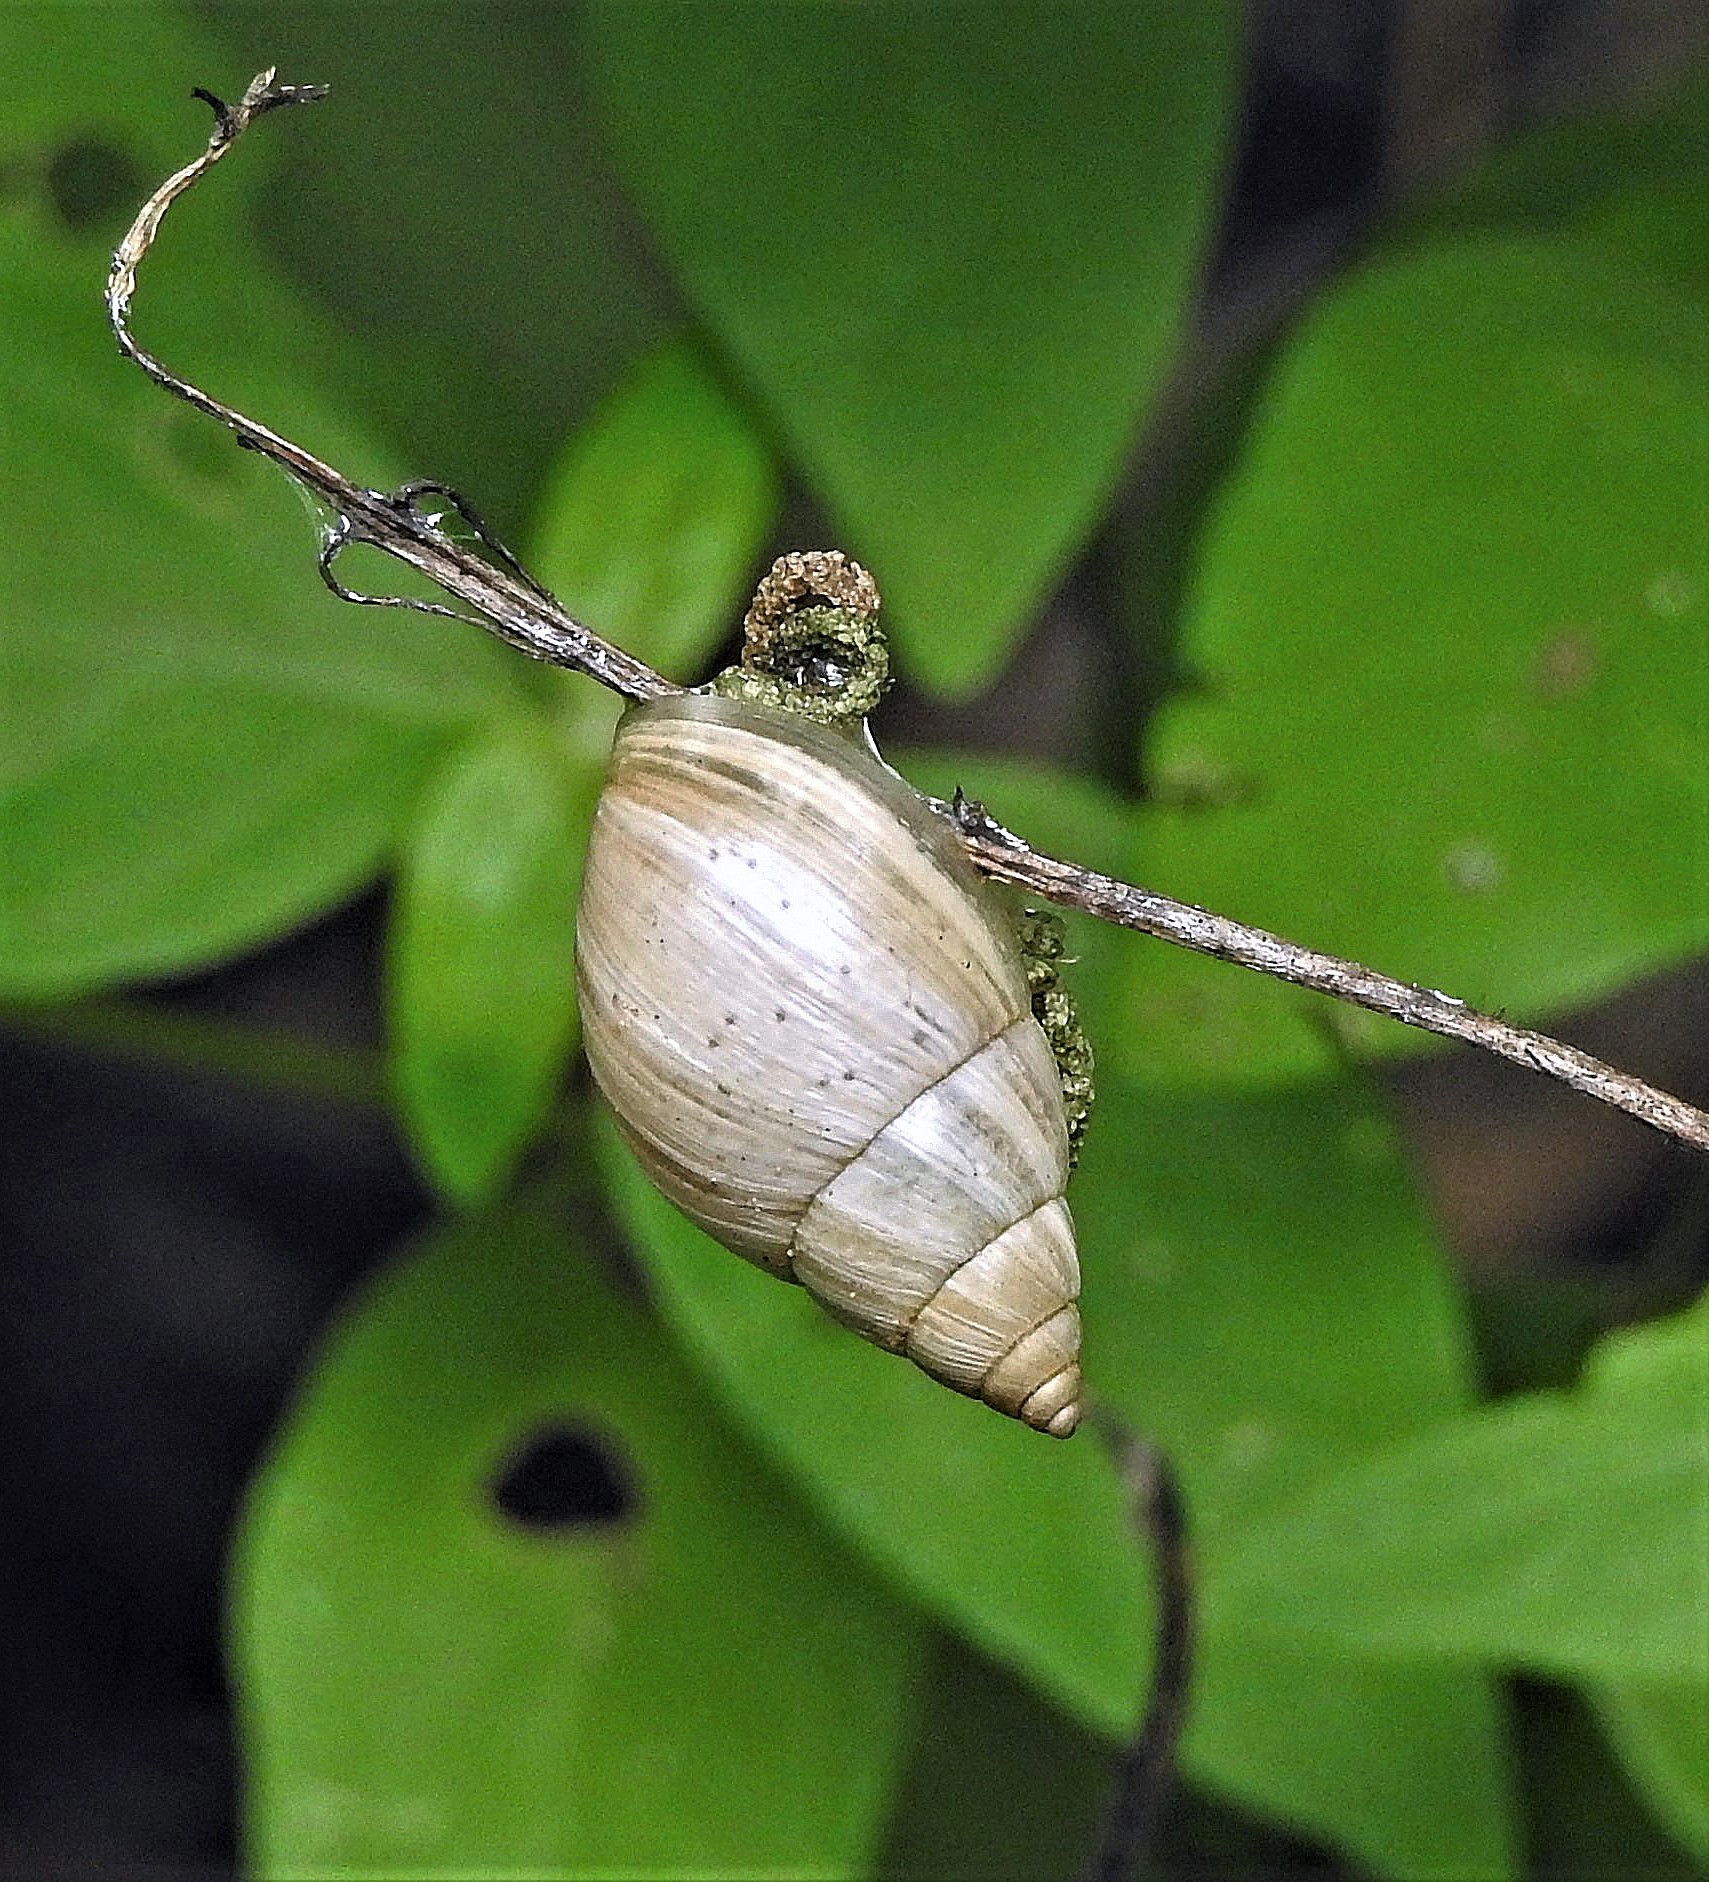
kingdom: Animalia
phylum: Mollusca
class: Gastropoda
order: Stylommatophora
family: Bulimulidae
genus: Bulimulus
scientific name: Bulimulus bonariensis
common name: Snail
